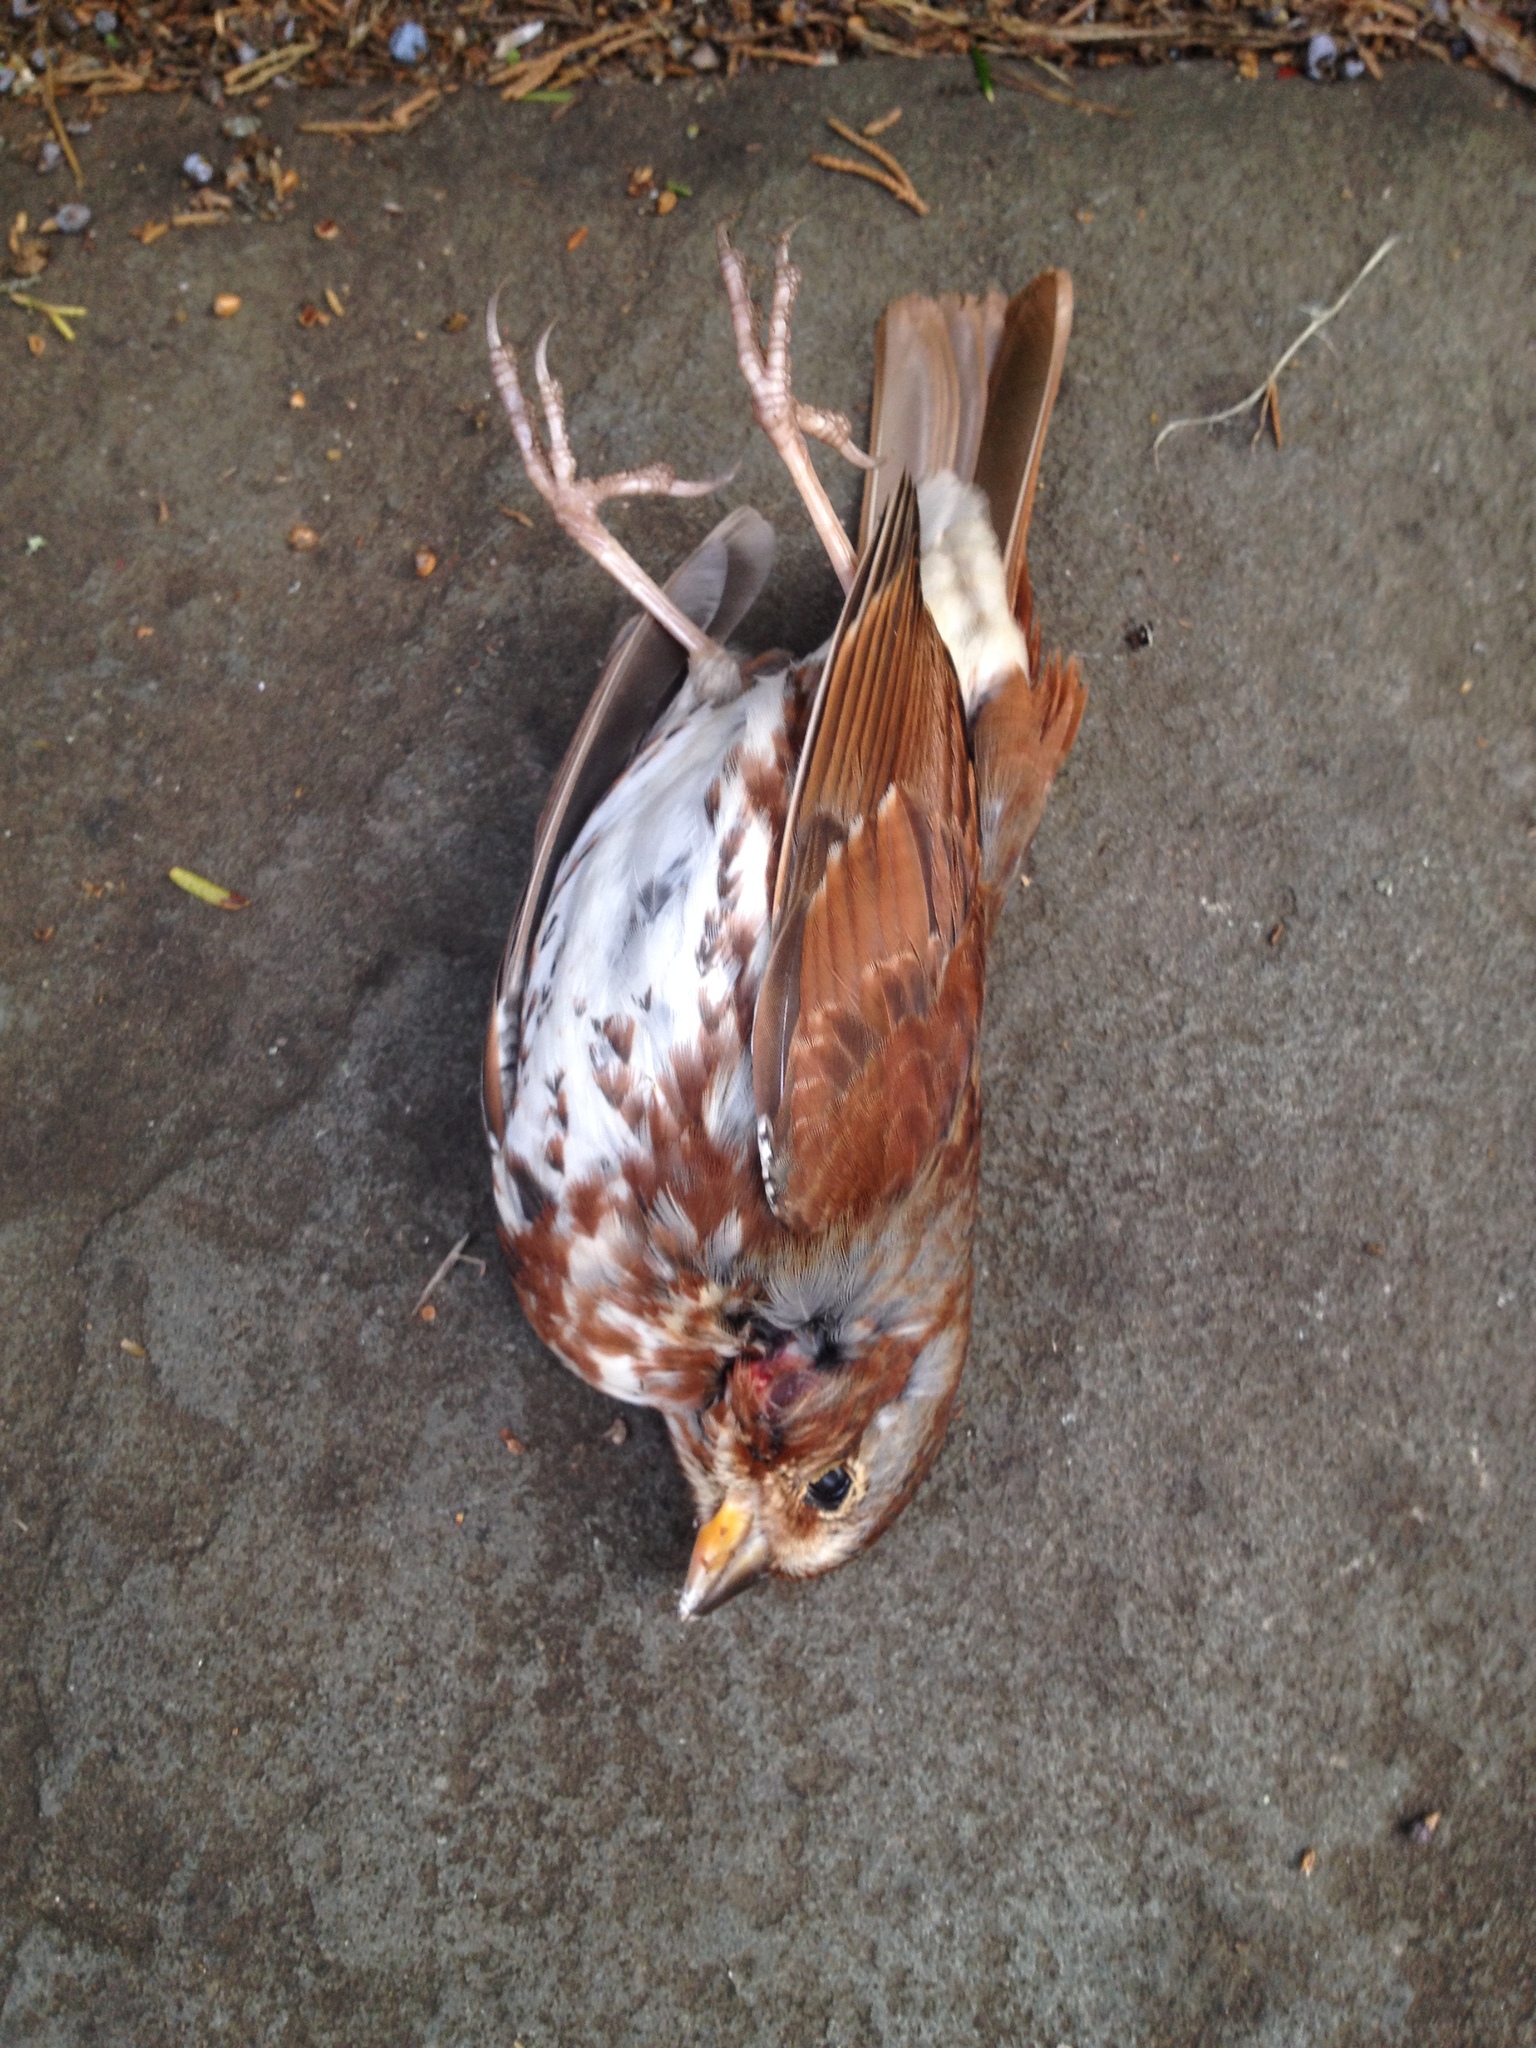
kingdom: Animalia
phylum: Chordata
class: Aves
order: Passeriformes
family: Passerellidae
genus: Passerella
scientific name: Passerella iliaca
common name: Fox sparrow
